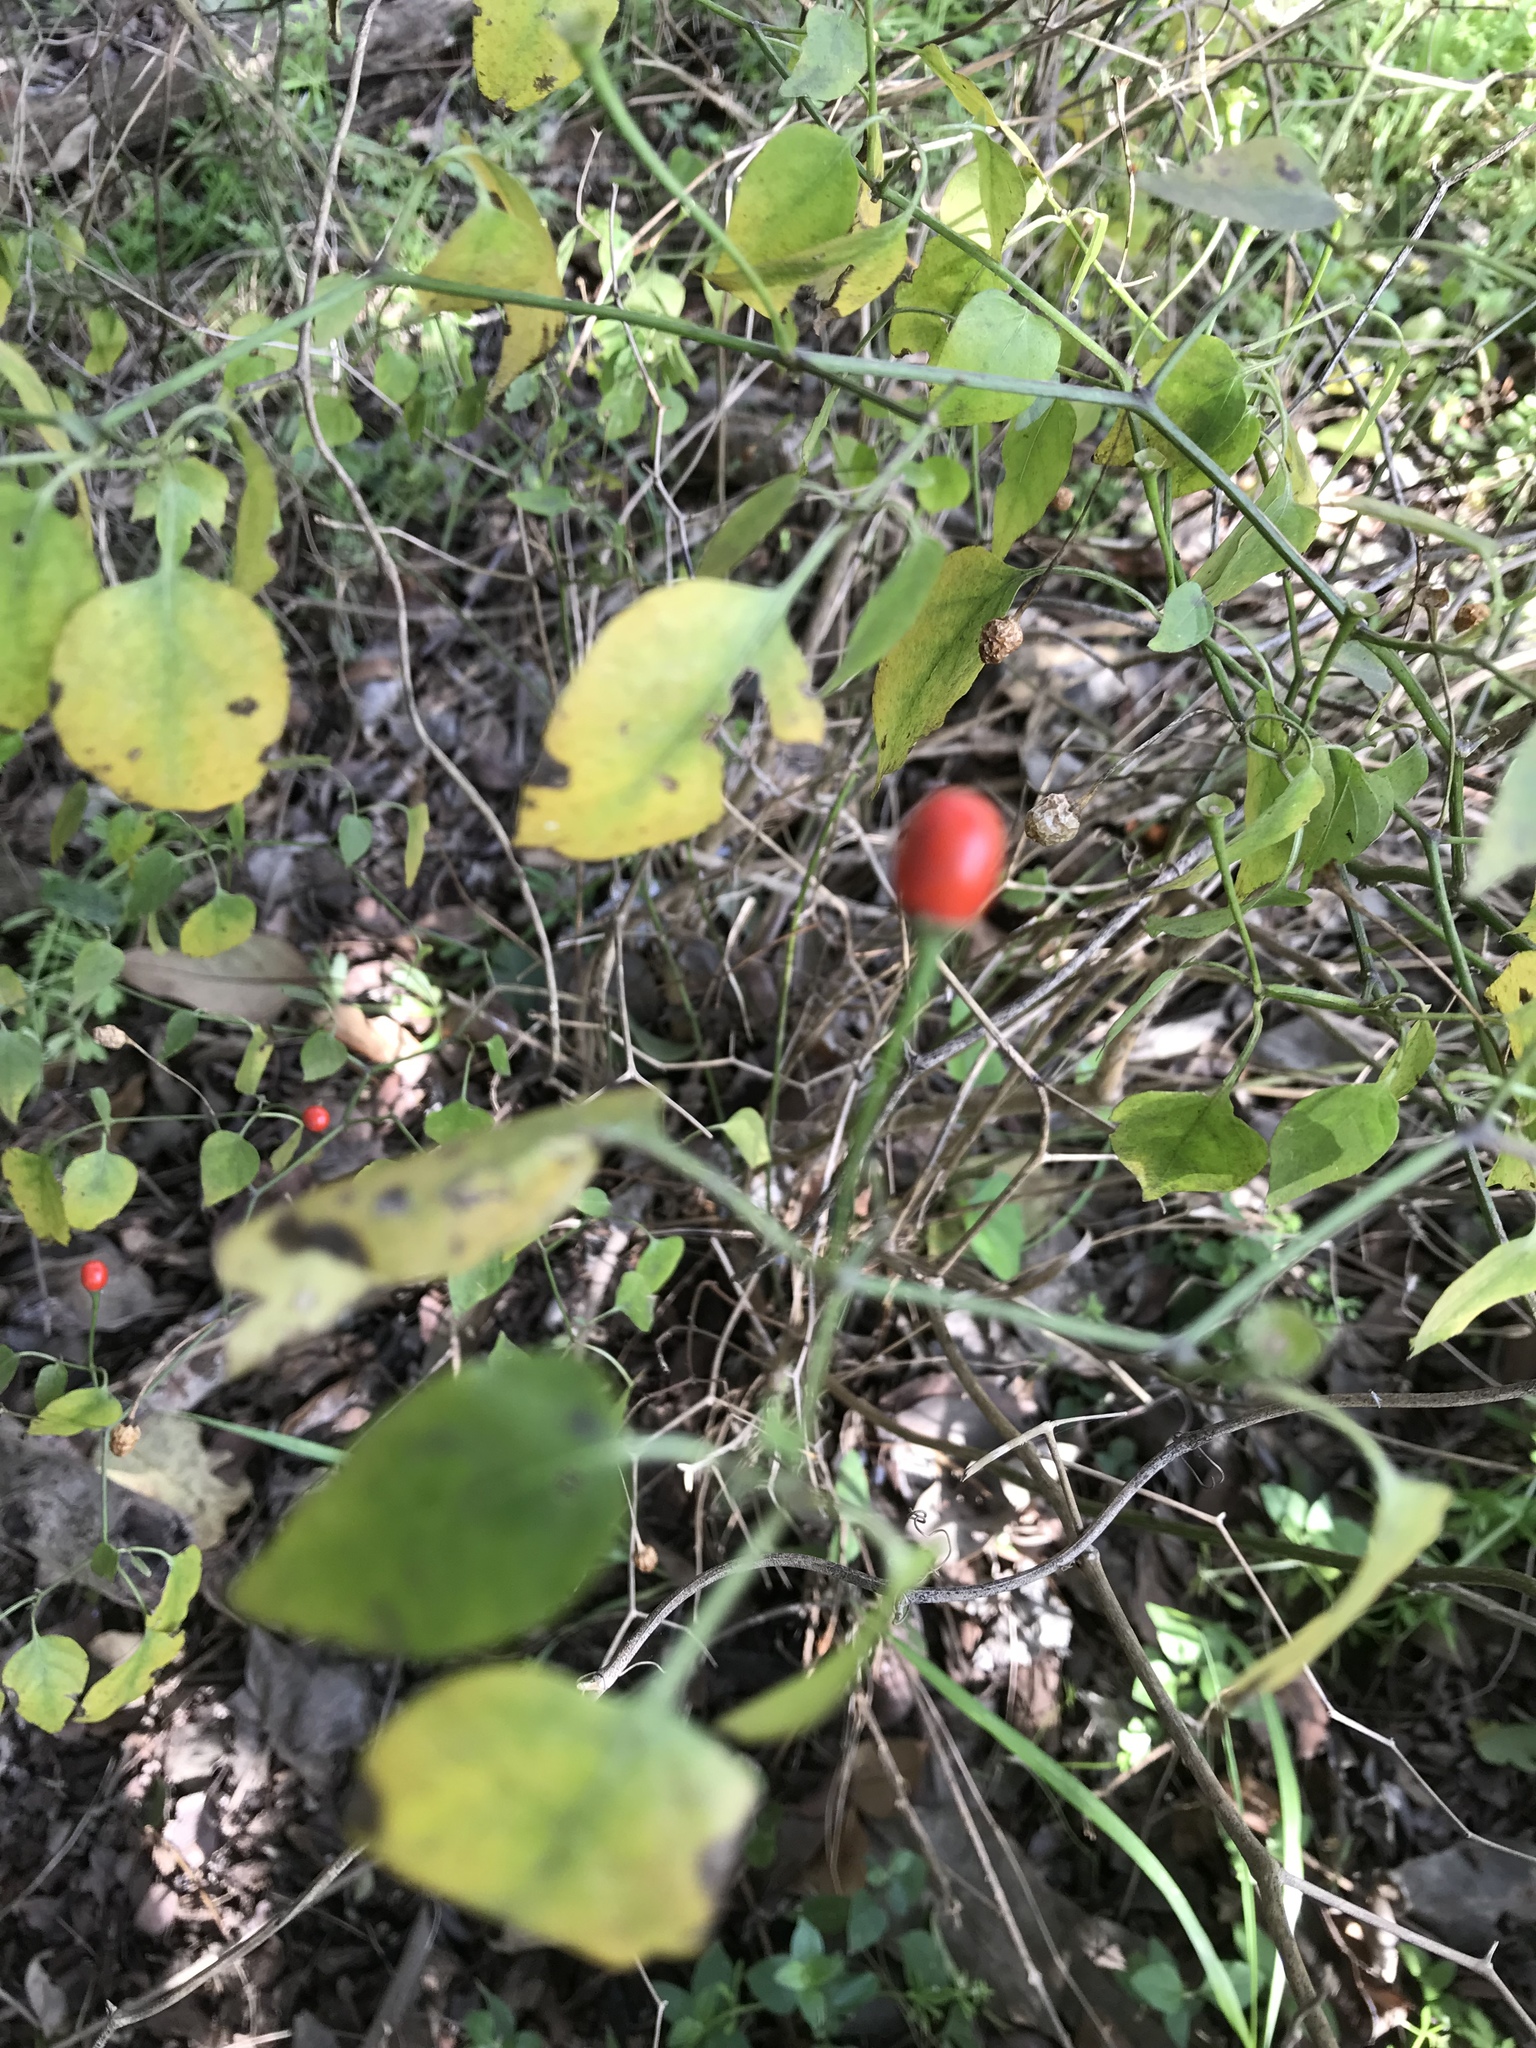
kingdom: Plantae
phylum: Tracheophyta
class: Magnoliopsida
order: Solanales
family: Solanaceae
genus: Capsicum
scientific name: Capsicum annuum
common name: Sweet pepper
